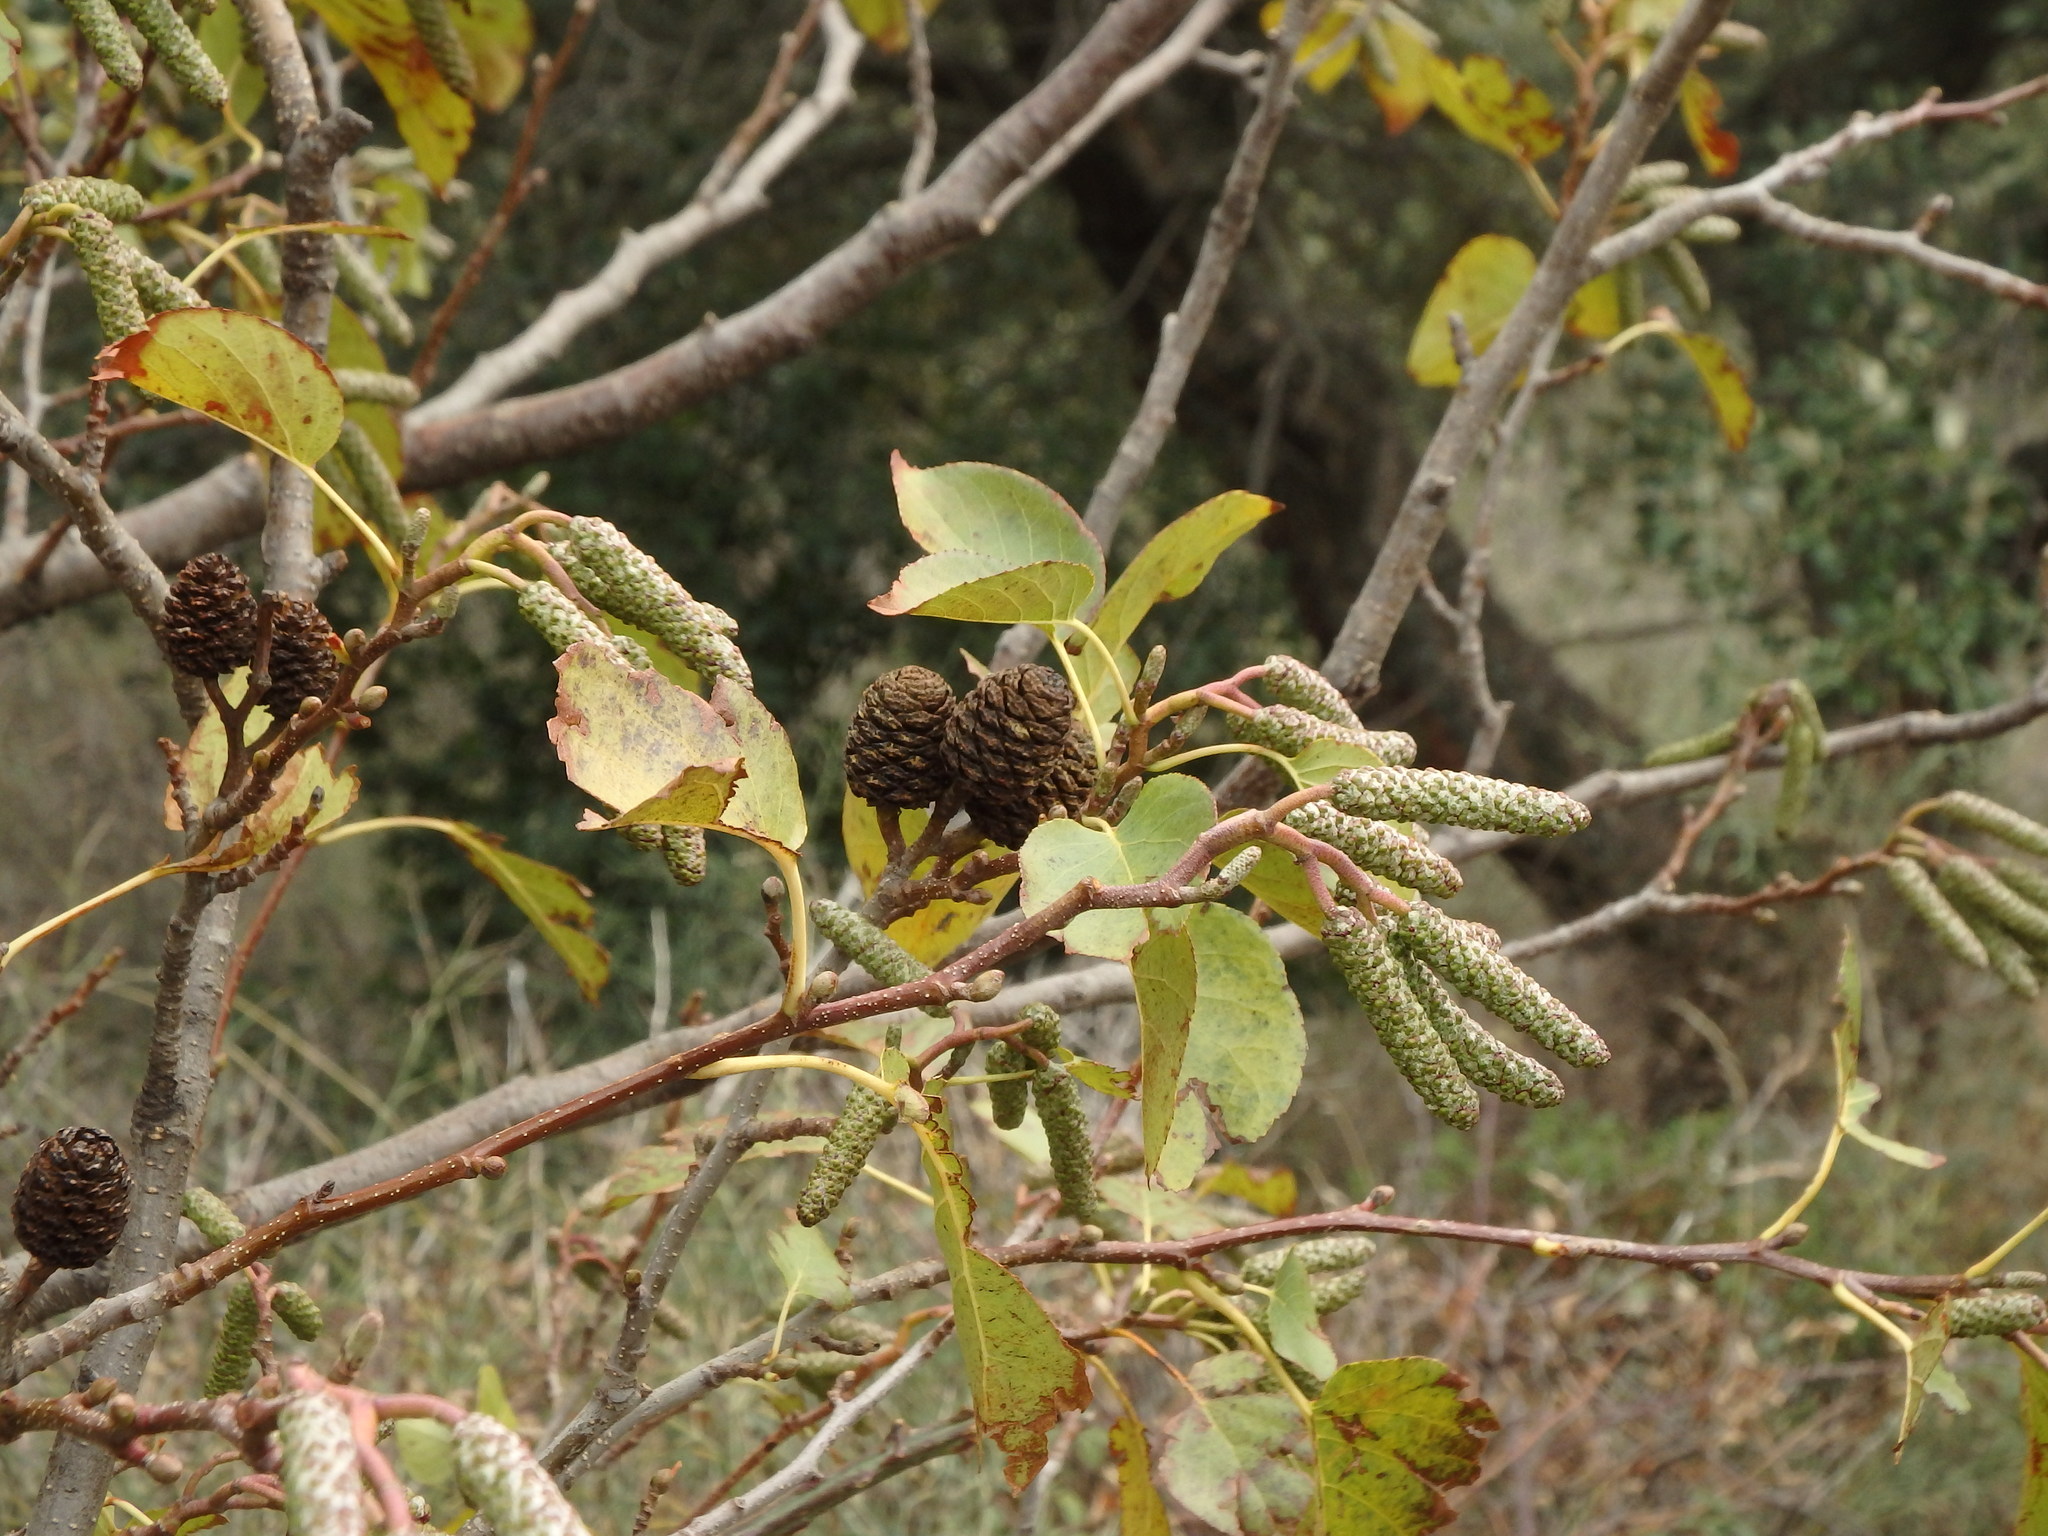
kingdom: Plantae
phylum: Tracheophyta
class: Magnoliopsida
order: Fagales
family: Betulaceae
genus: Alnus
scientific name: Alnus cordata
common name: Italian alder
